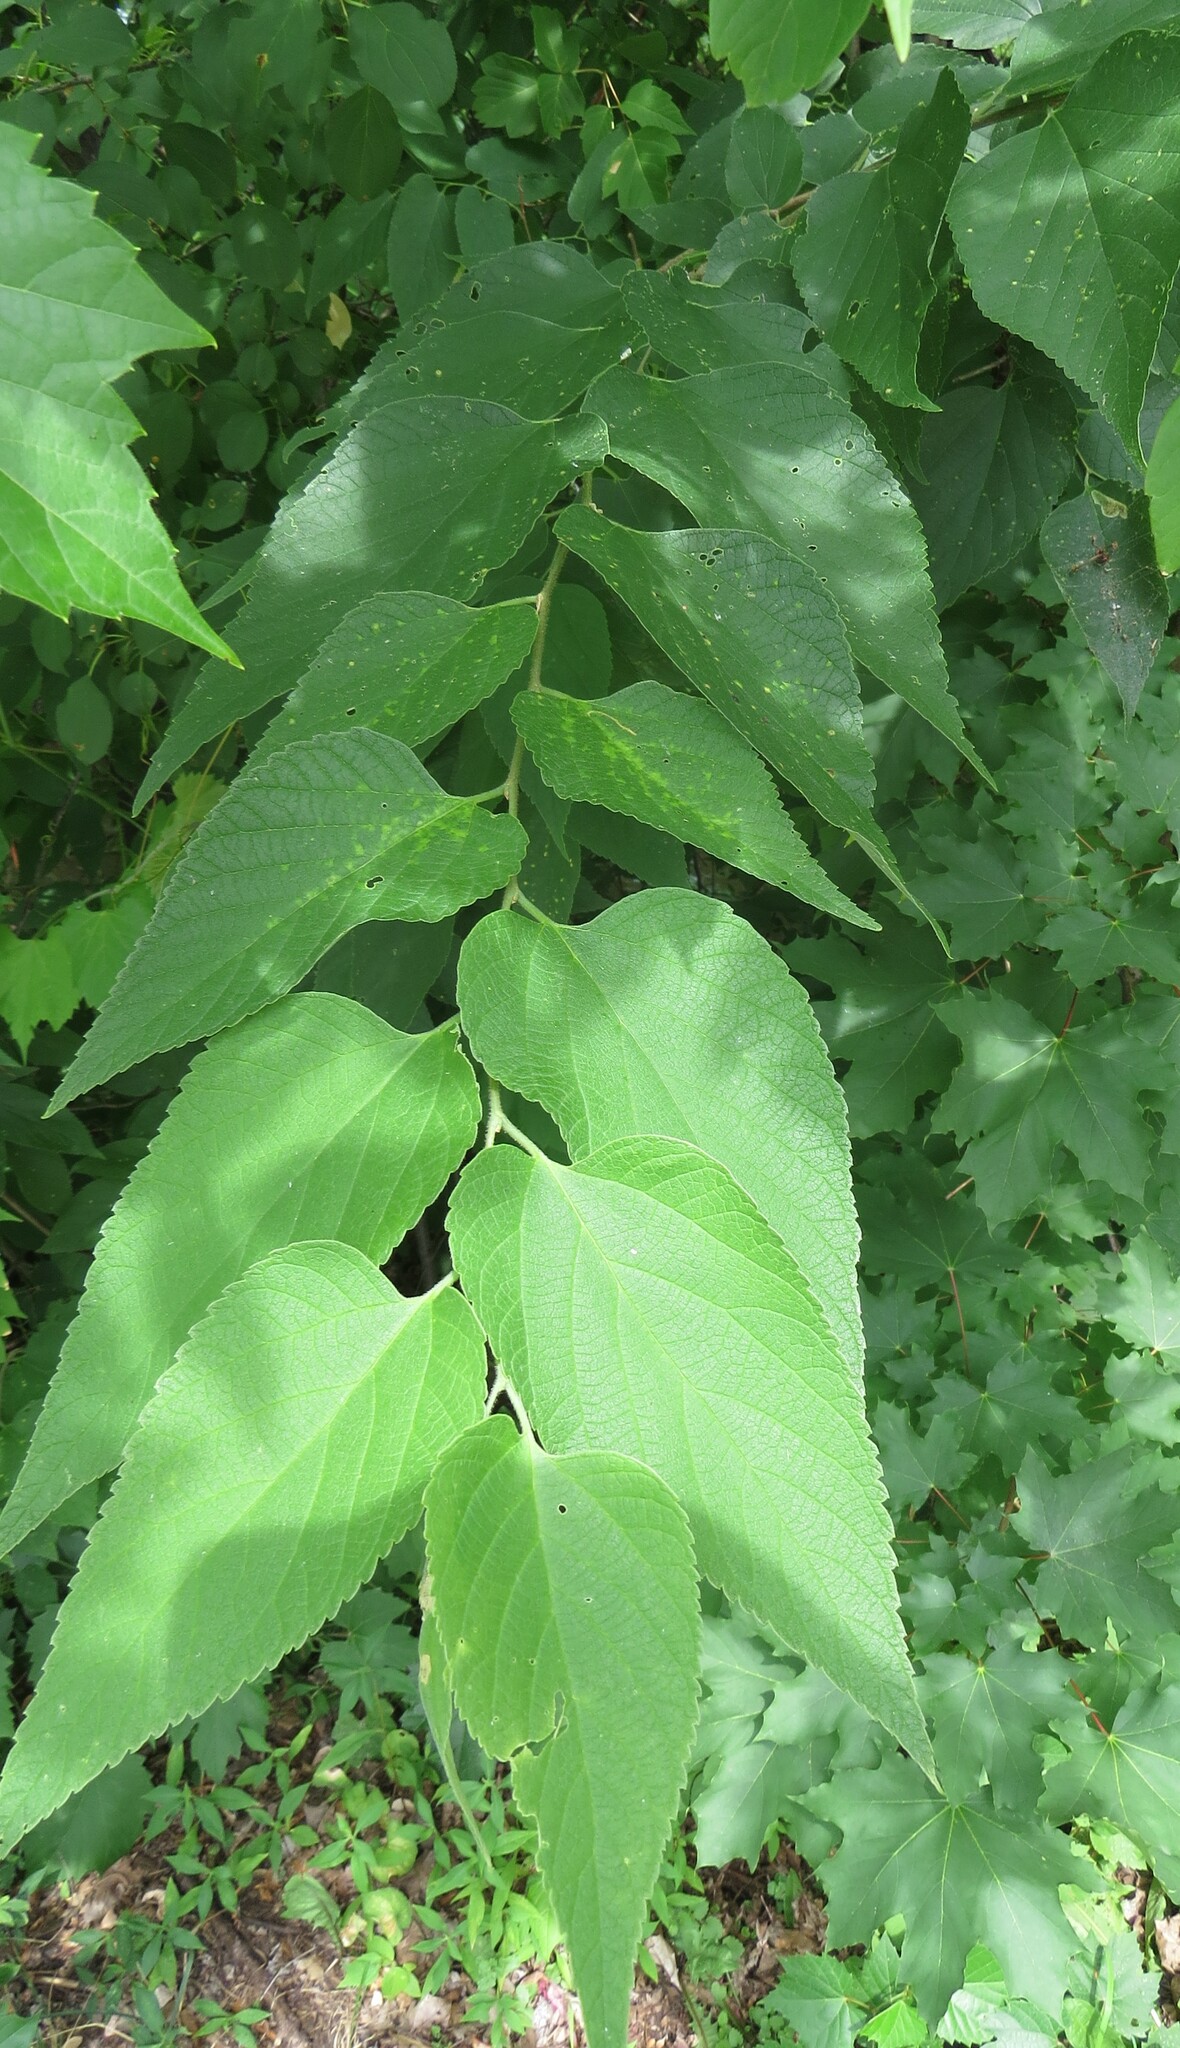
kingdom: Plantae
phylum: Tracheophyta
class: Magnoliopsida
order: Rosales
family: Cannabaceae
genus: Celtis
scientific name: Celtis occidentalis
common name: Common hackberry
